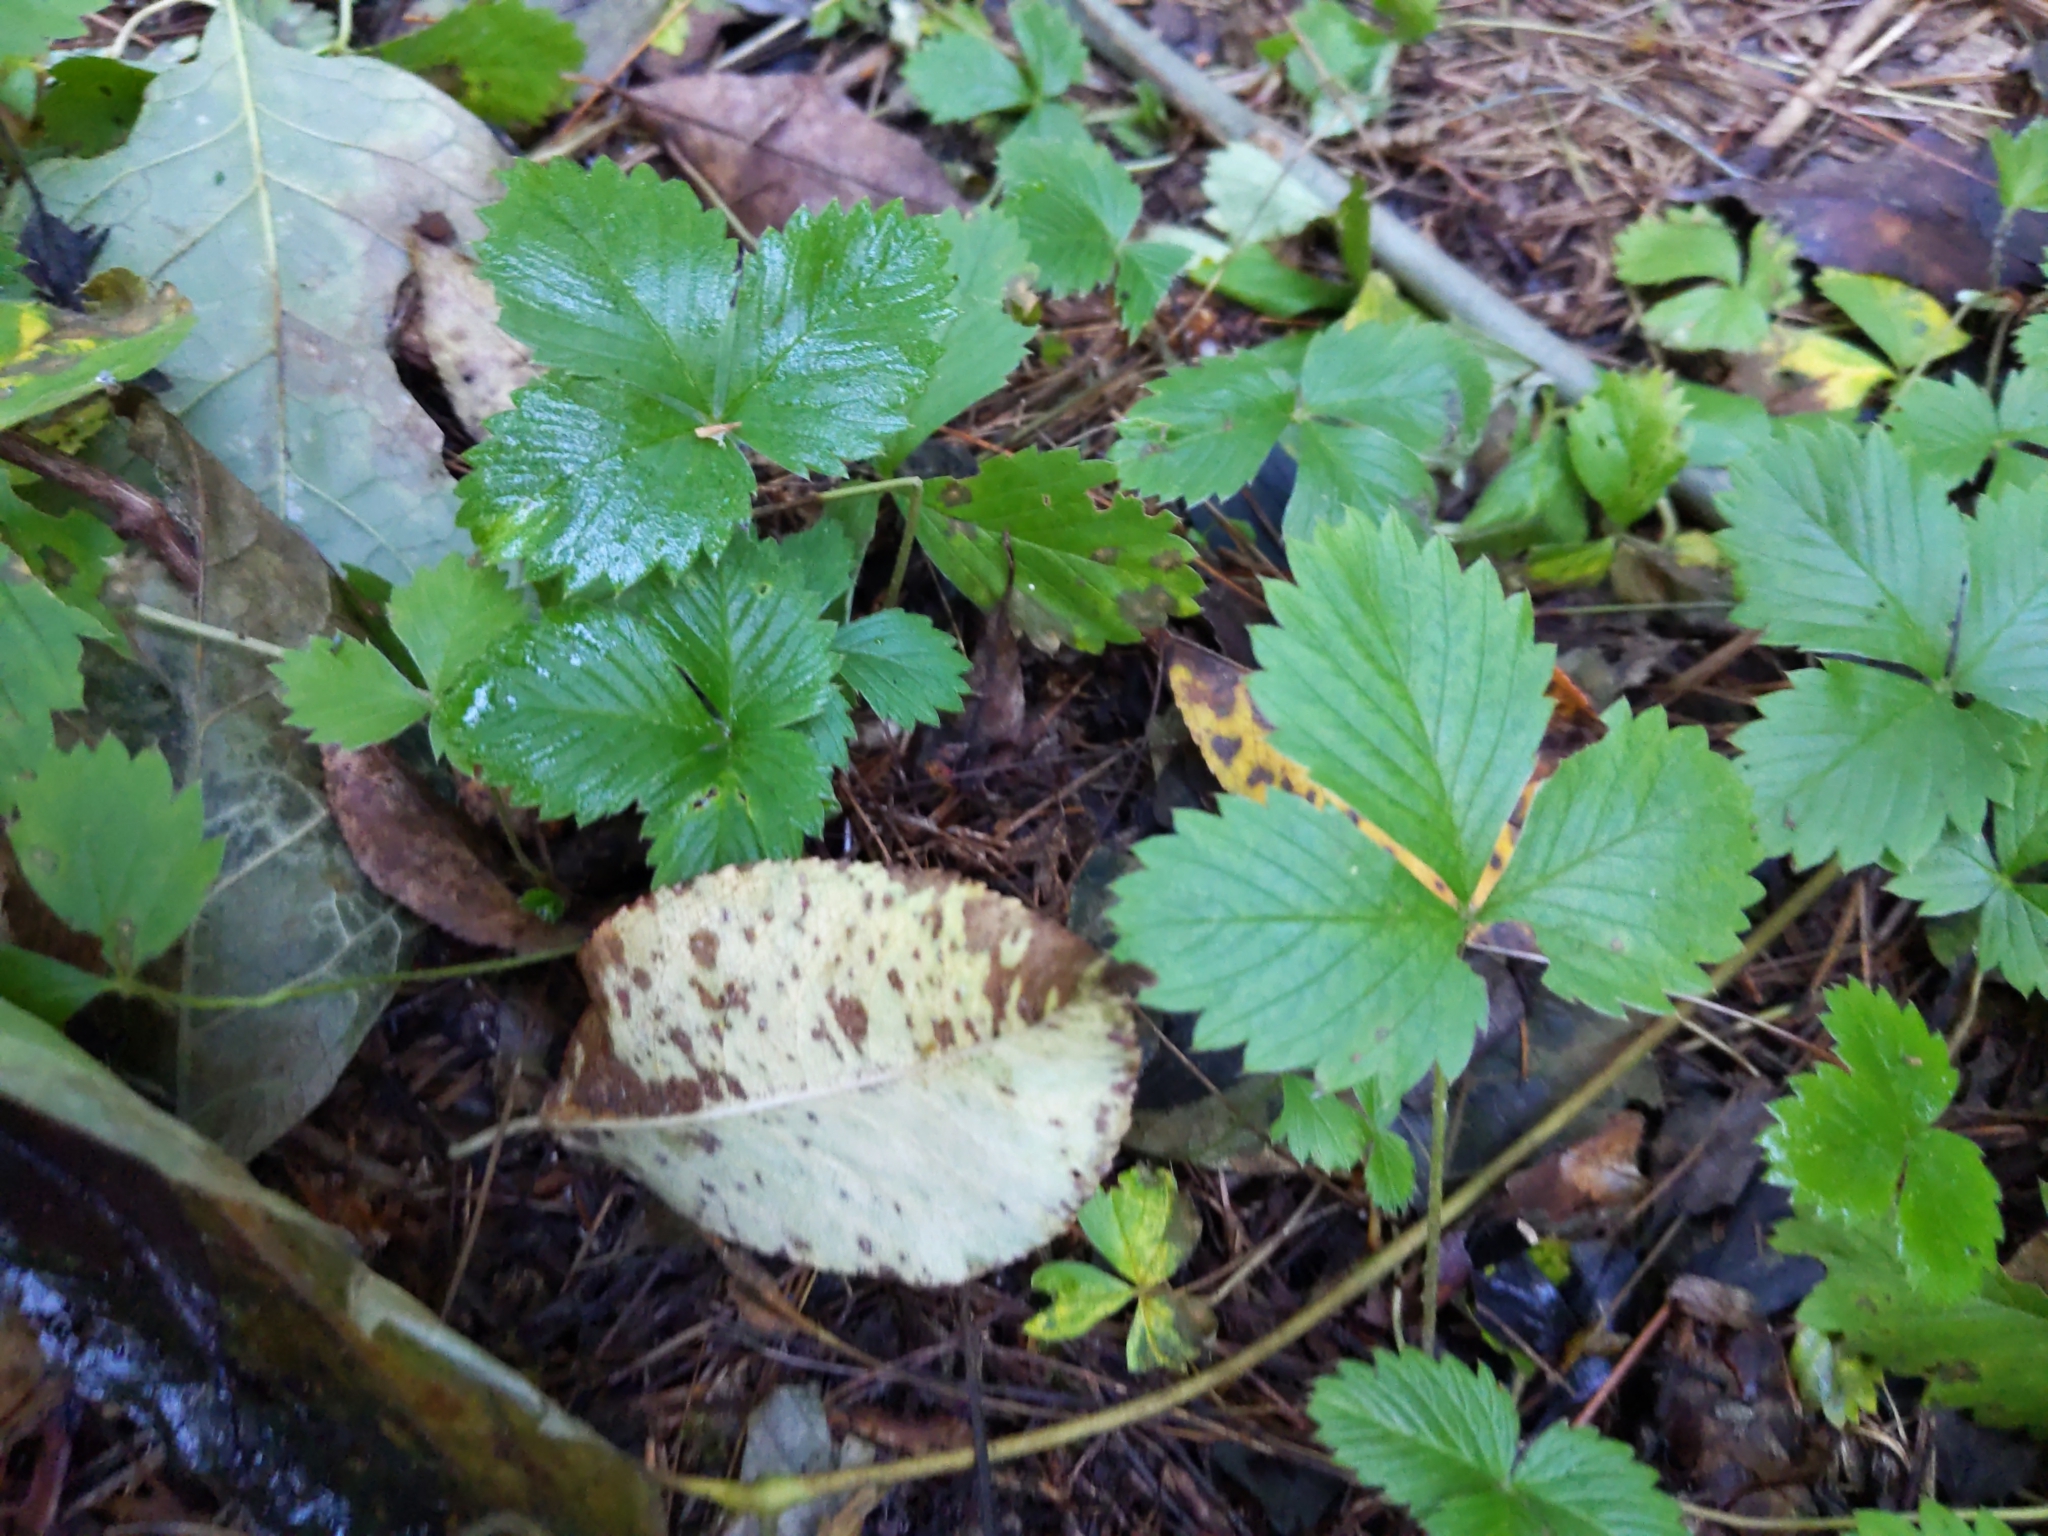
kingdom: Plantae
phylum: Tracheophyta
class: Magnoliopsida
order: Rosales
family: Rosaceae
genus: Fragaria
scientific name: Fragaria vesca
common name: Wild strawberry
